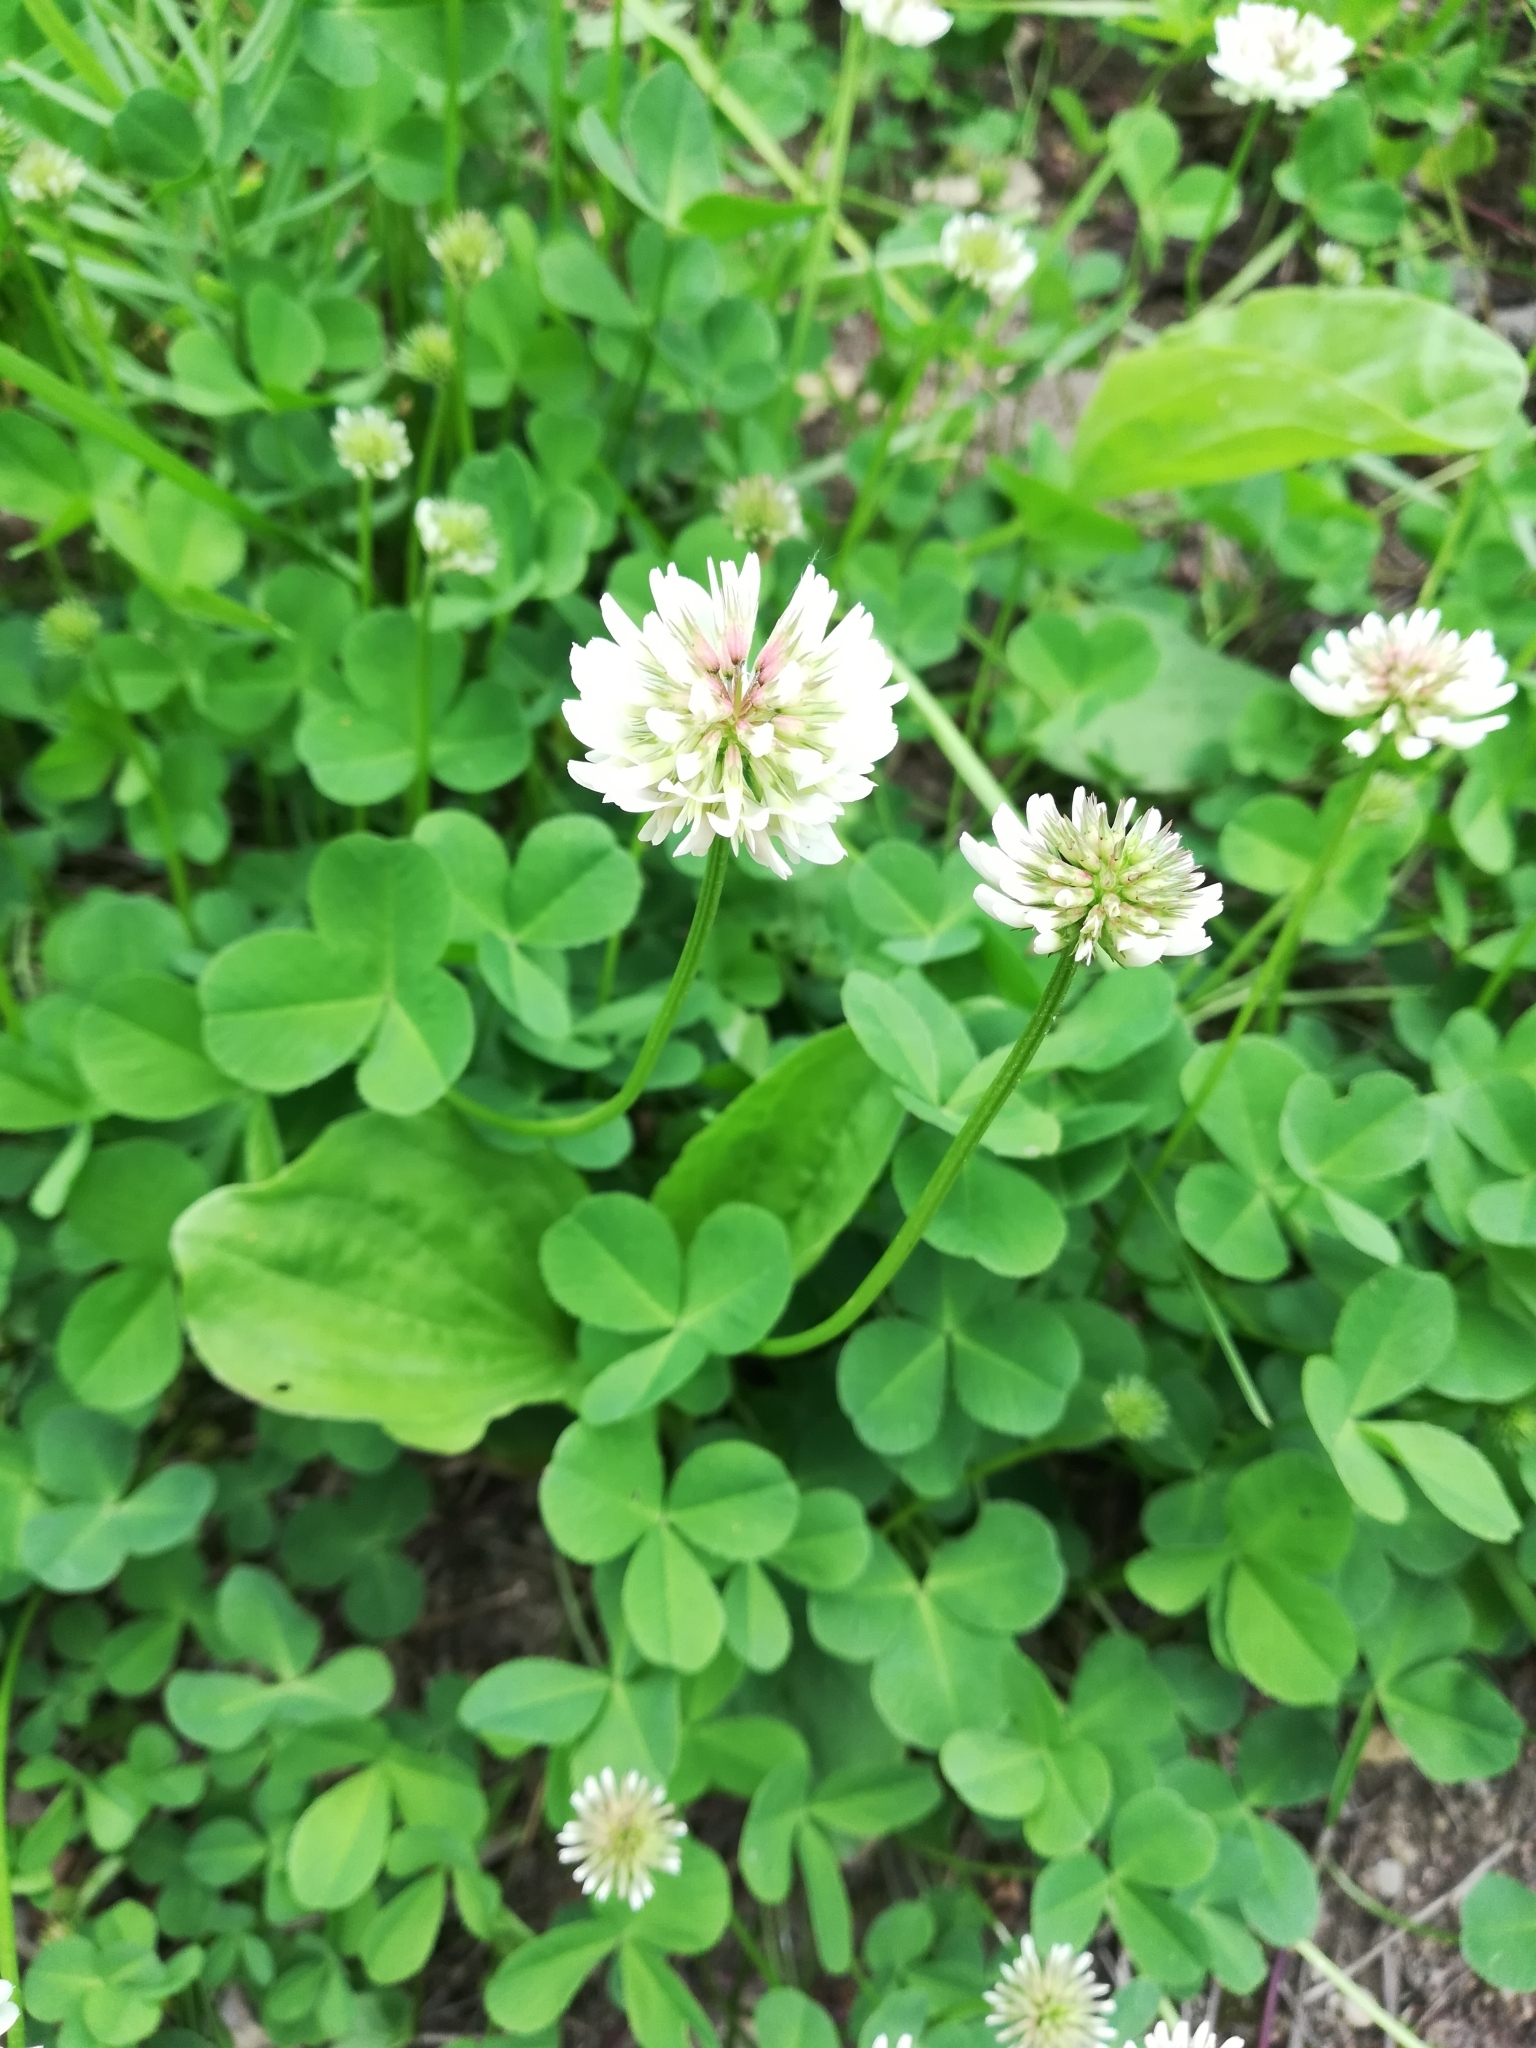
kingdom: Plantae
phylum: Tracheophyta
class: Magnoliopsida
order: Fabales
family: Fabaceae
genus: Trifolium
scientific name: Trifolium repens
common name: White clover
